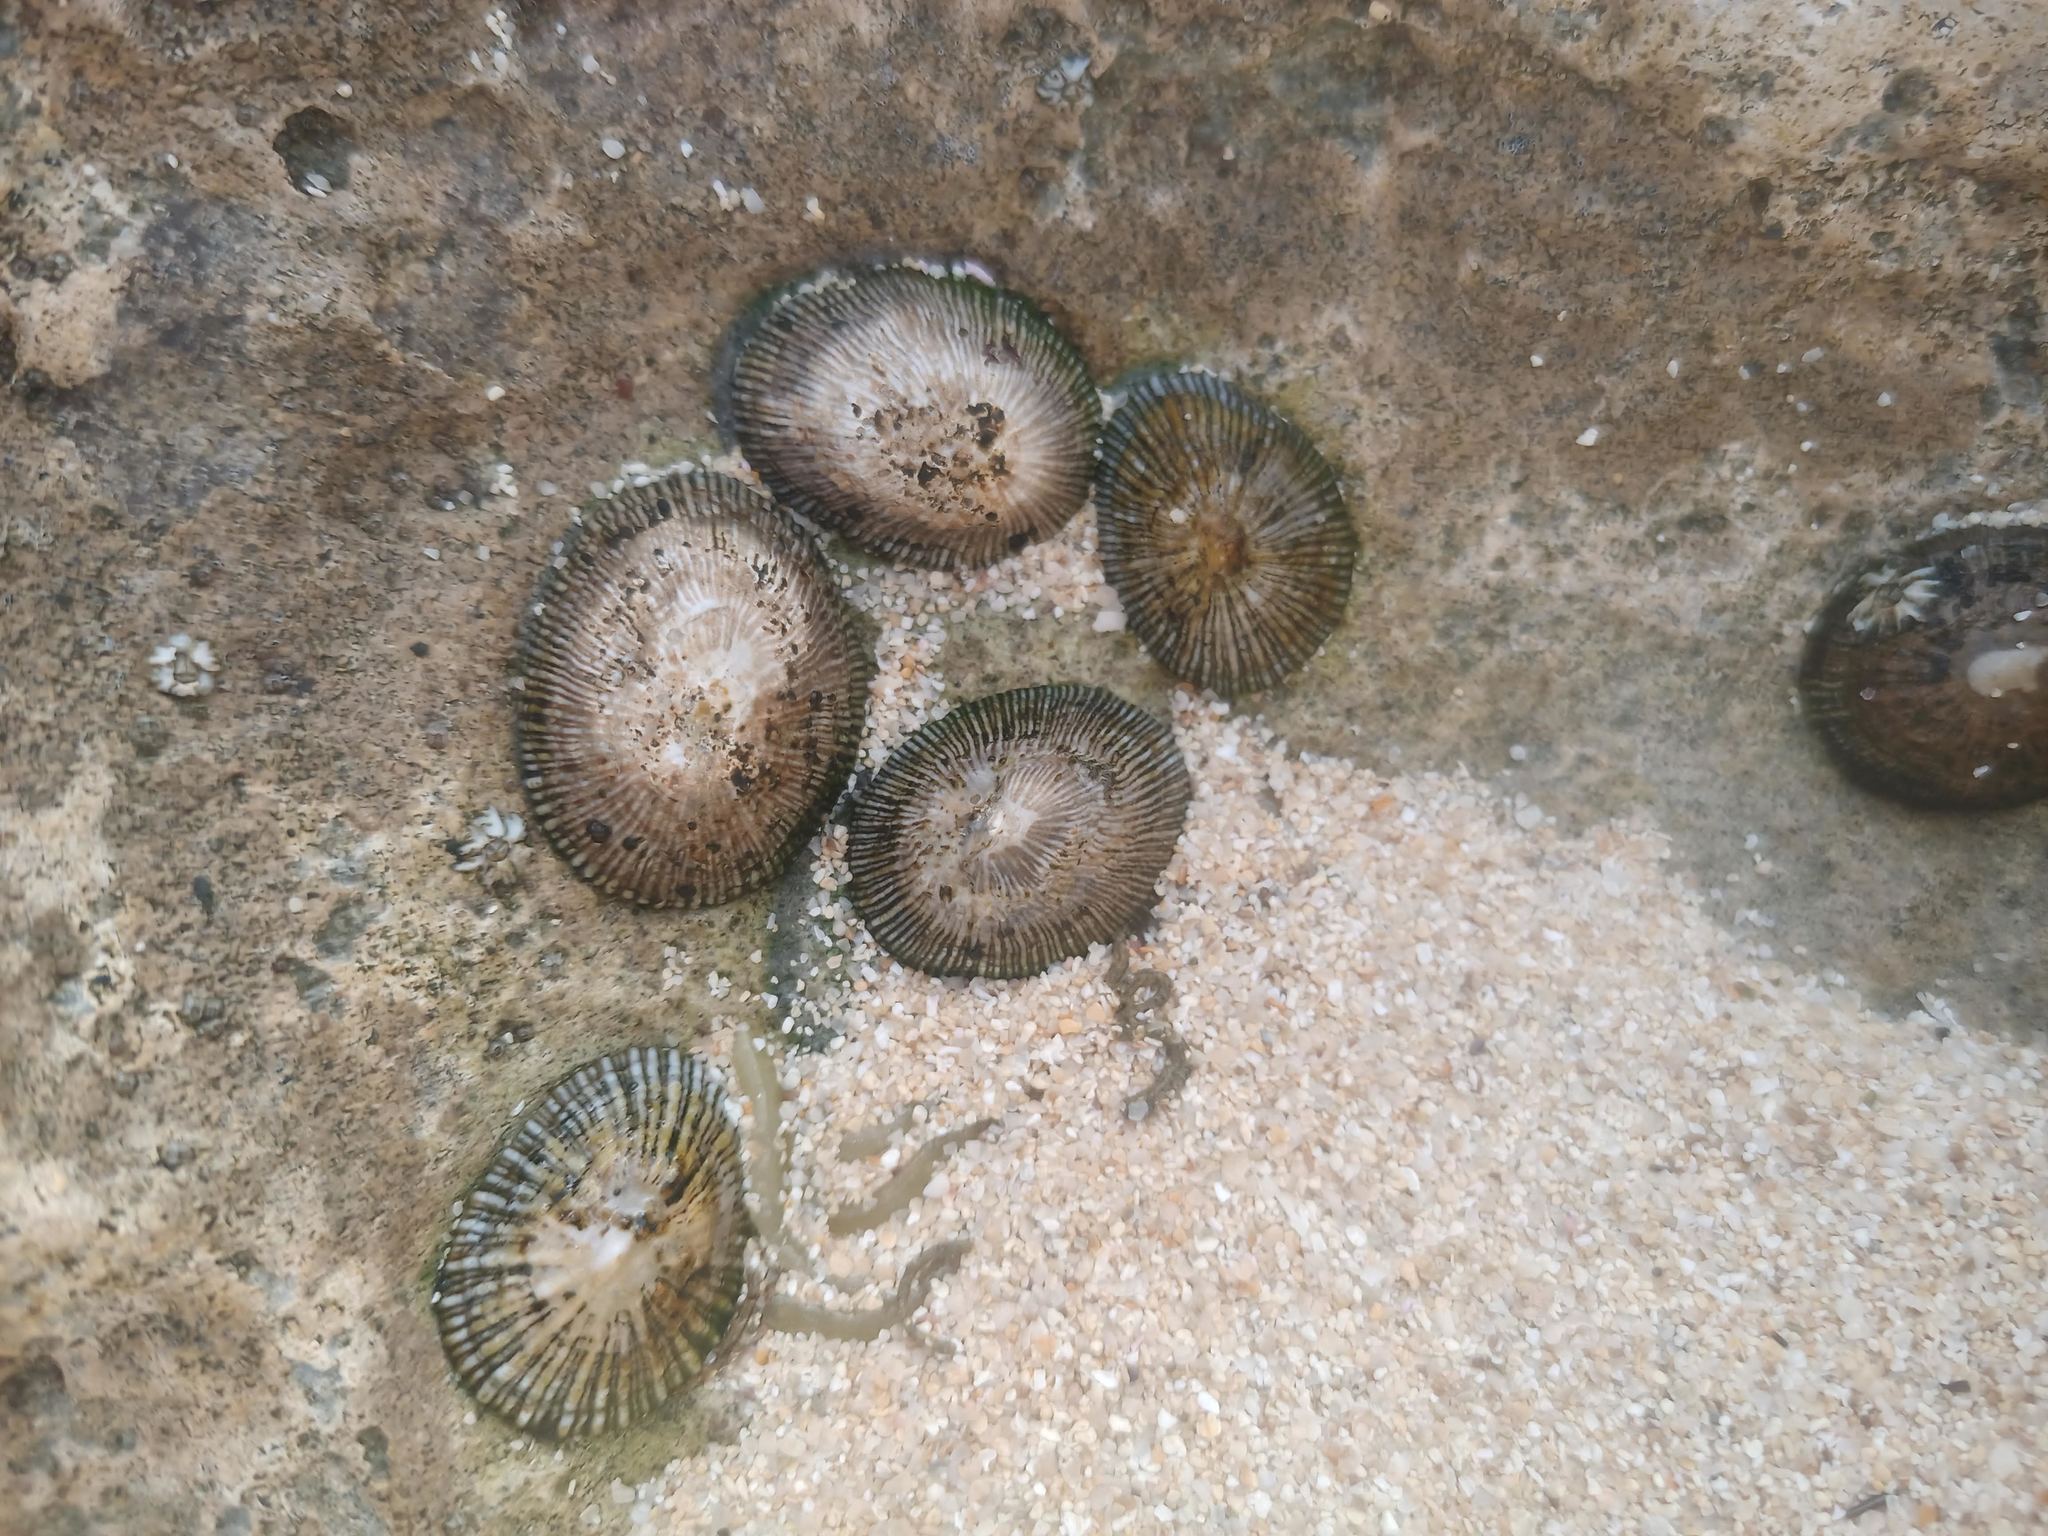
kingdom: Animalia
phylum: Mollusca
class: Gastropoda
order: Siphonariida
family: Siphonariidae
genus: Siphonaria
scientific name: Siphonaria pectinata
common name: Striped false limpet
